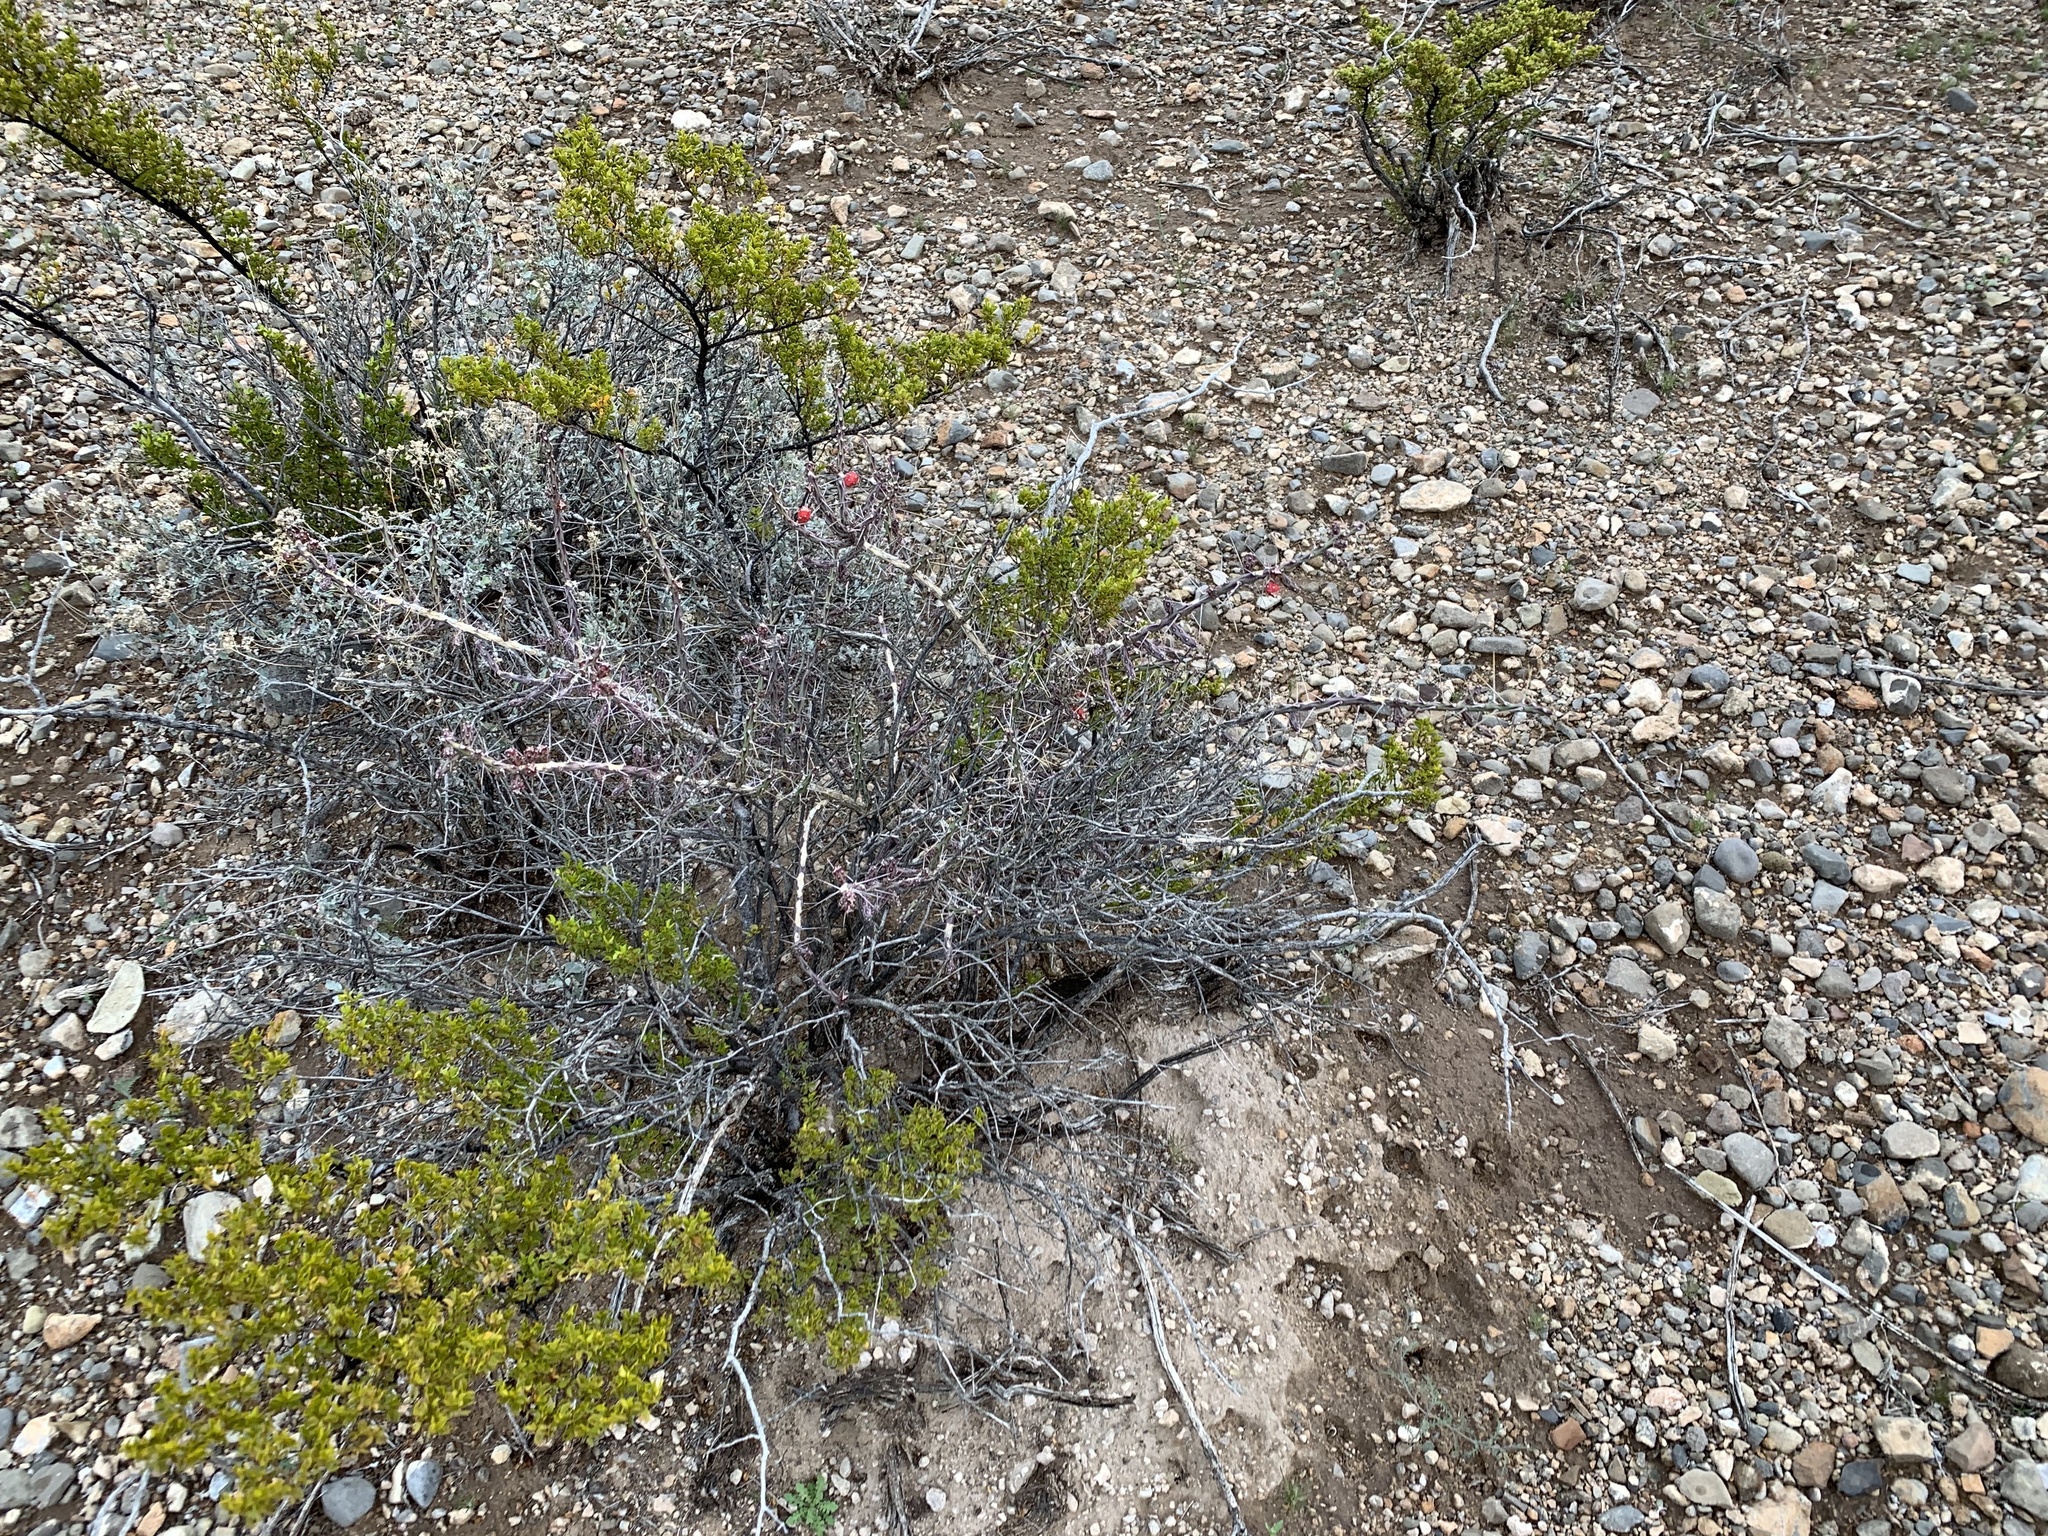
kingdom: Plantae
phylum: Tracheophyta
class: Magnoliopsida
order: Caryophyllales
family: Cactaceae
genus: Cylindropuntia
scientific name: Cylindropuntia leptocaulis
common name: Christmas cactus
